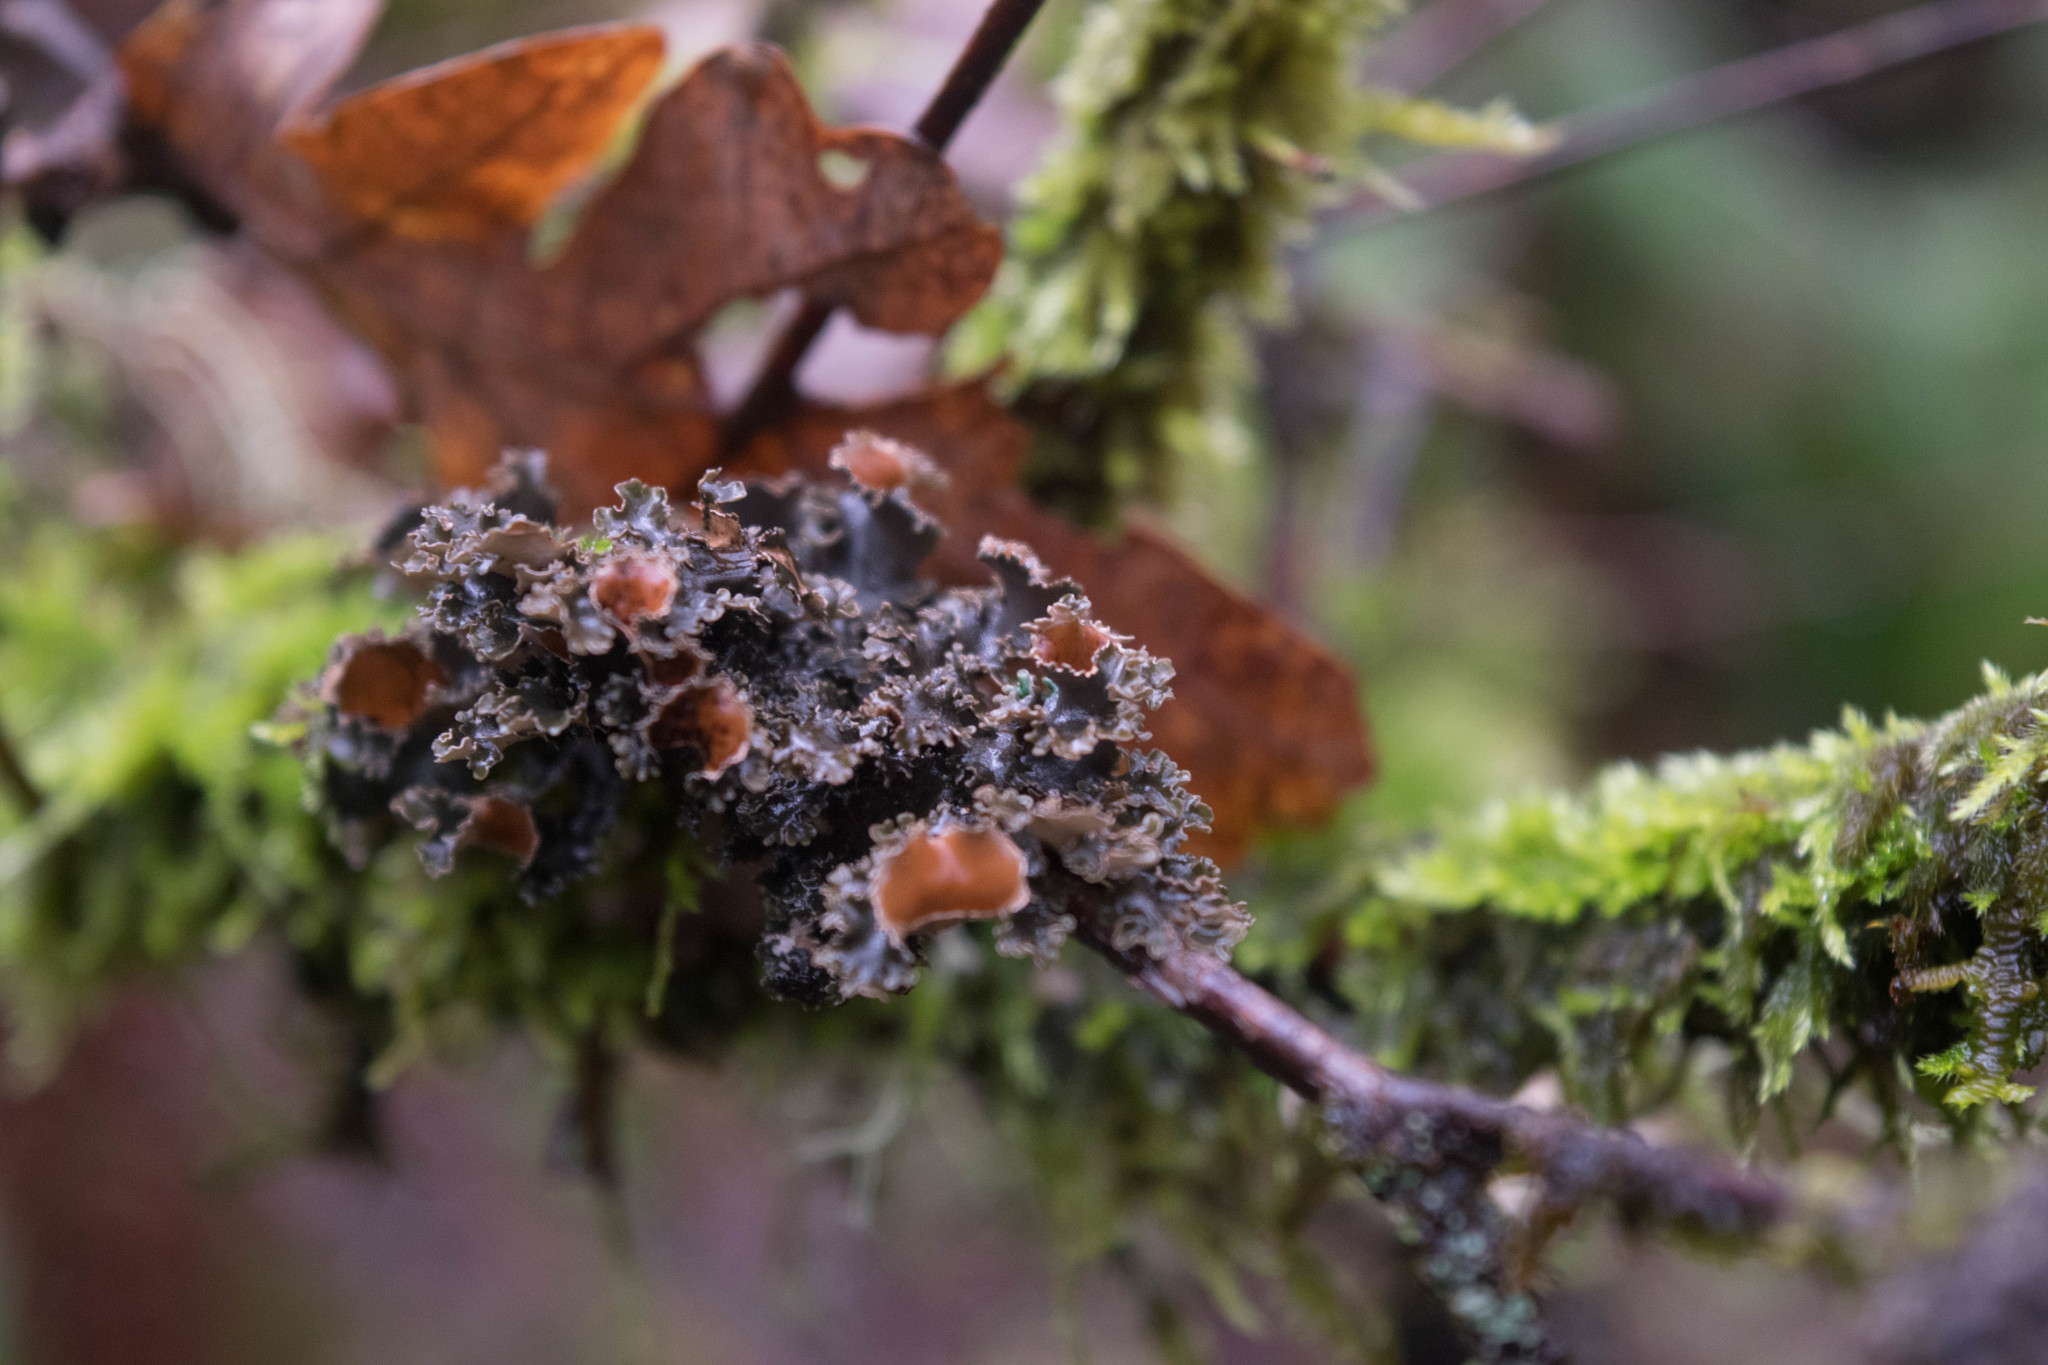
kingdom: Fungi
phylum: Ascomycota
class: Lecanoromycetes
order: Peltigerales
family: Nephromataceae
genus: Nephroma
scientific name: Nephroma helveticum
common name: Fringed kidney lichen
